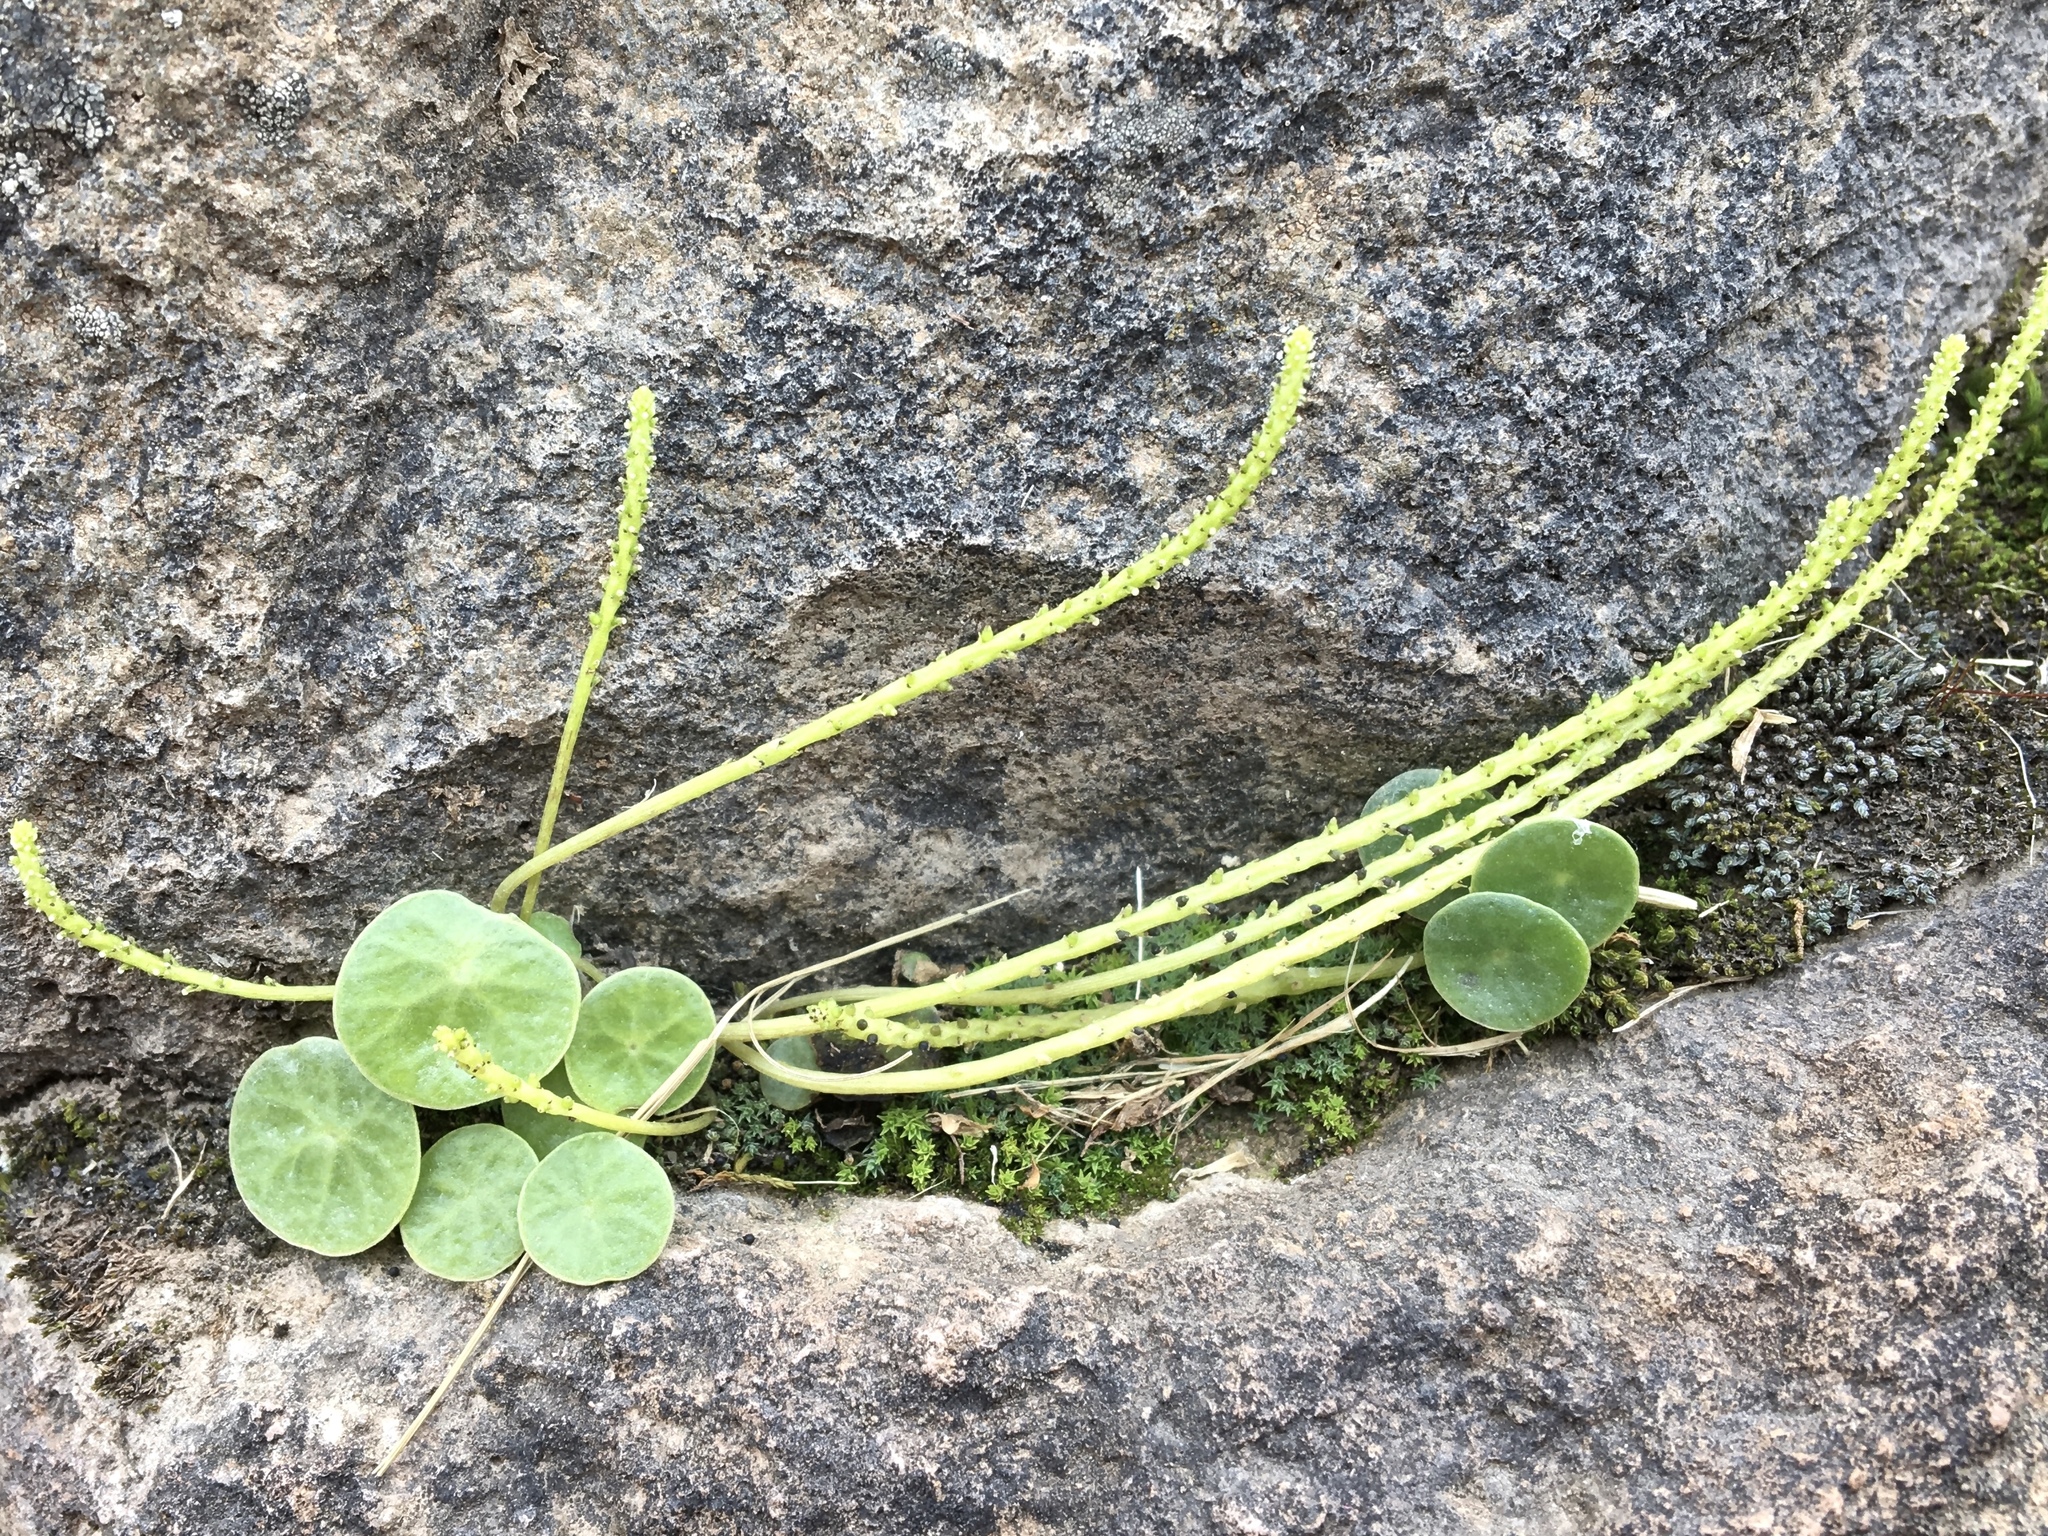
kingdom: Plantae
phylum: Tracheophyta
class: Magnoliopsida
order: Piperales
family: Piperaceae
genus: Peperomia
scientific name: Peperomia polycephala
